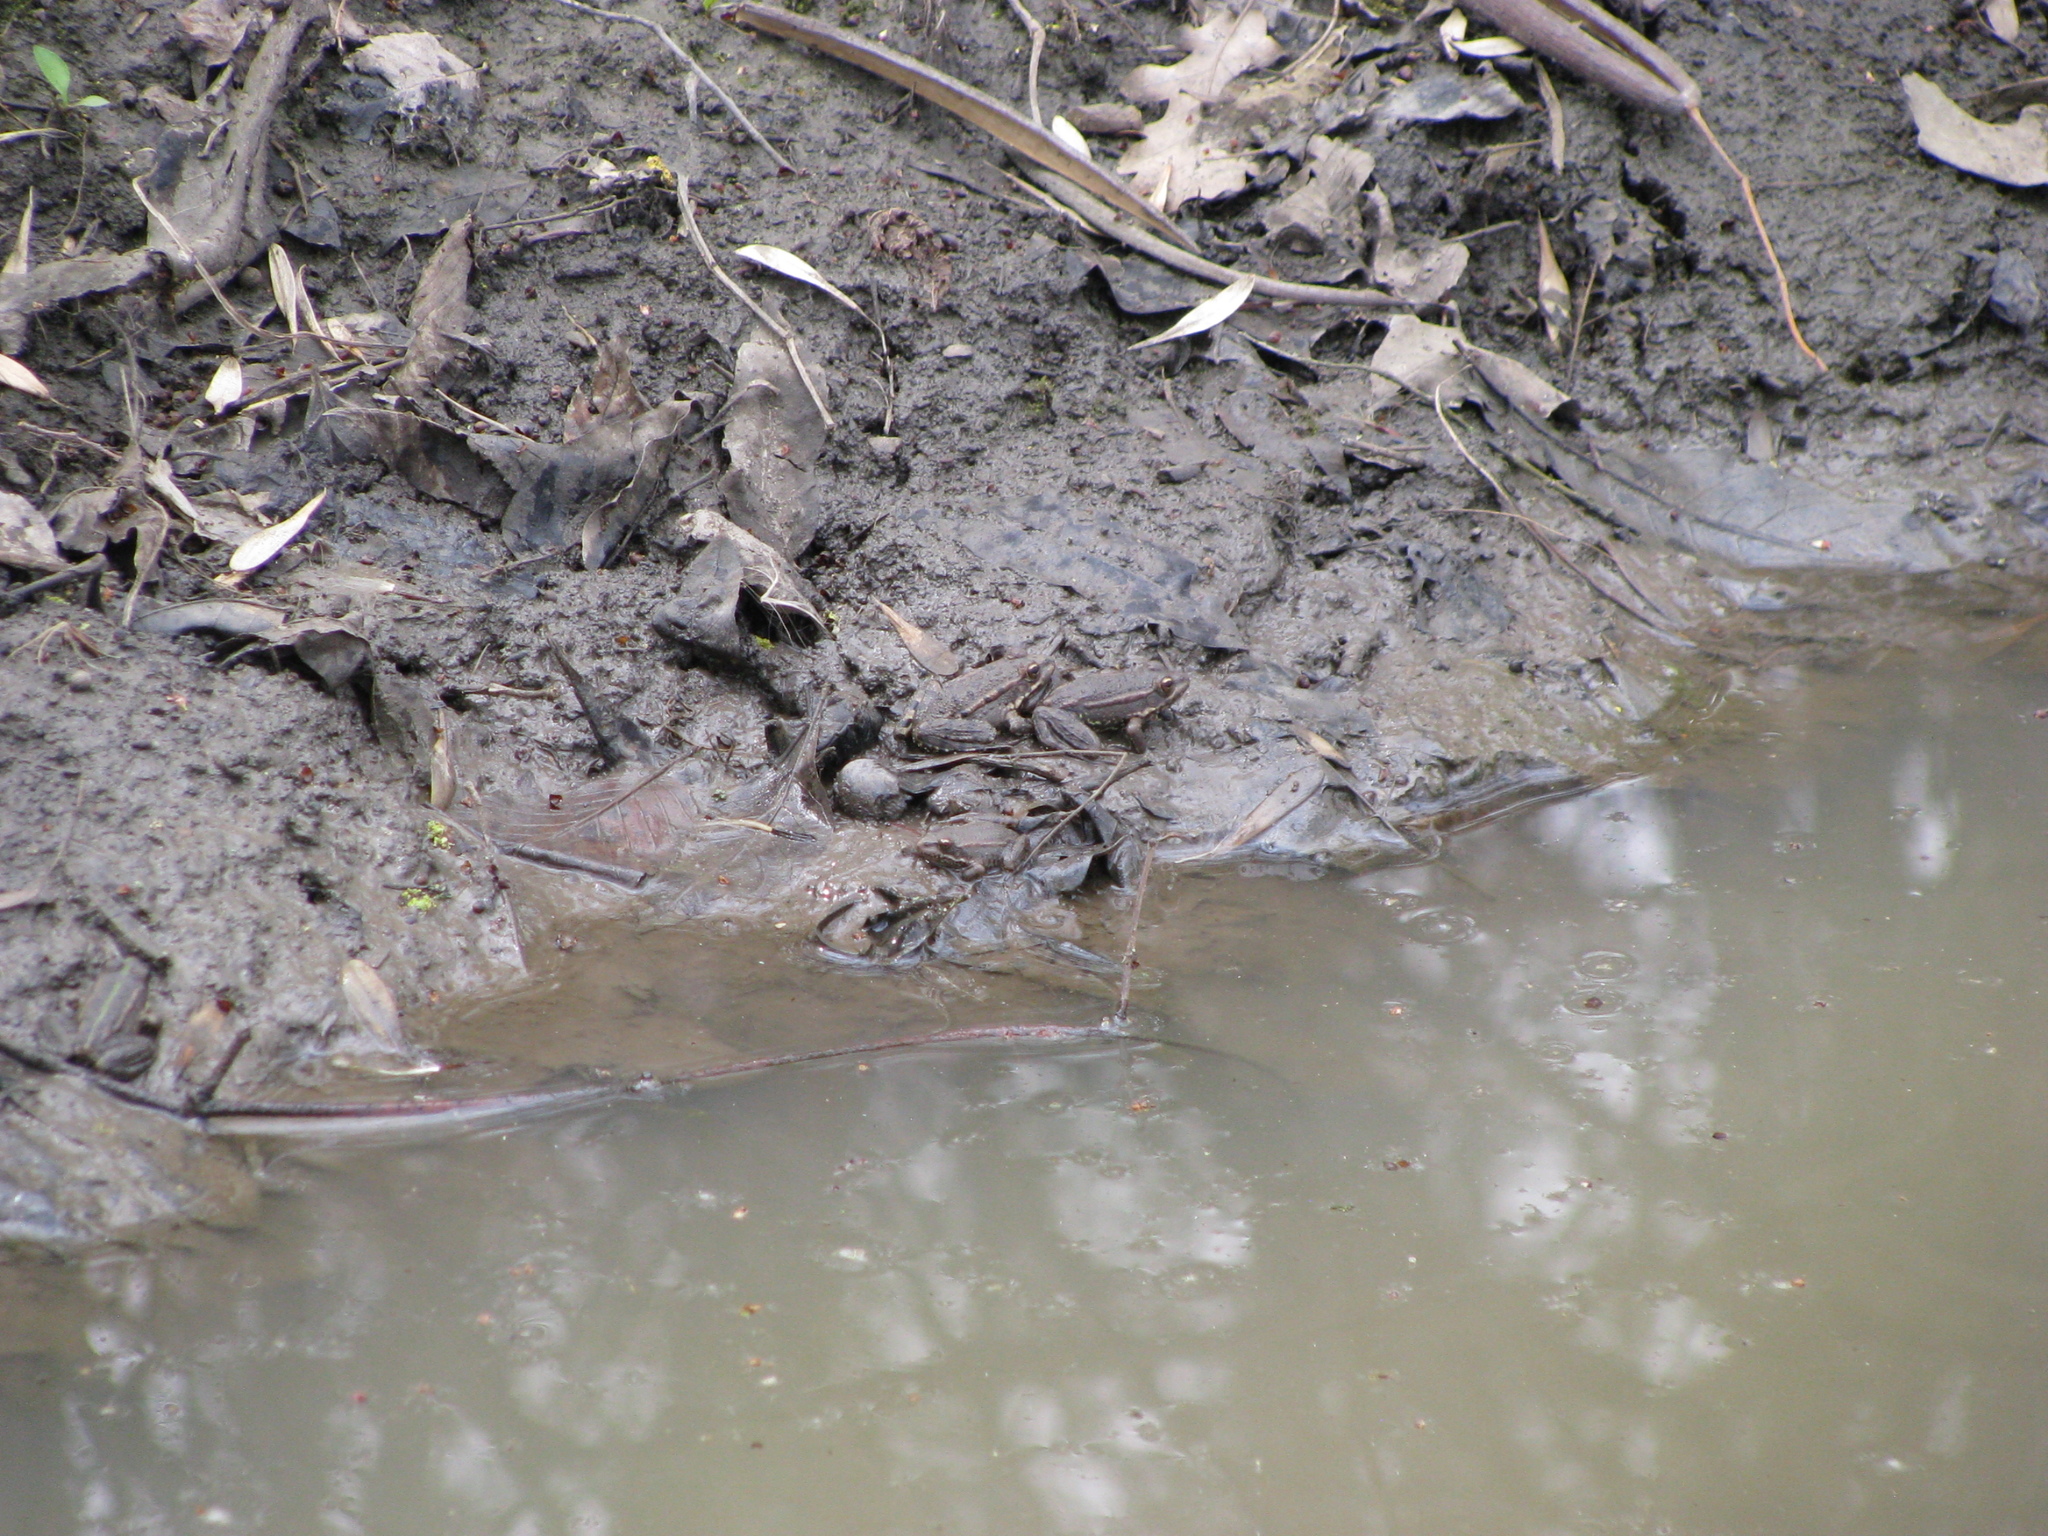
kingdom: Animalia
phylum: Chordata
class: Amphibia
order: Anura
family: Ranidae
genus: Pelophylax
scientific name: Pelophylax ridibundus
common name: Marsh frog
